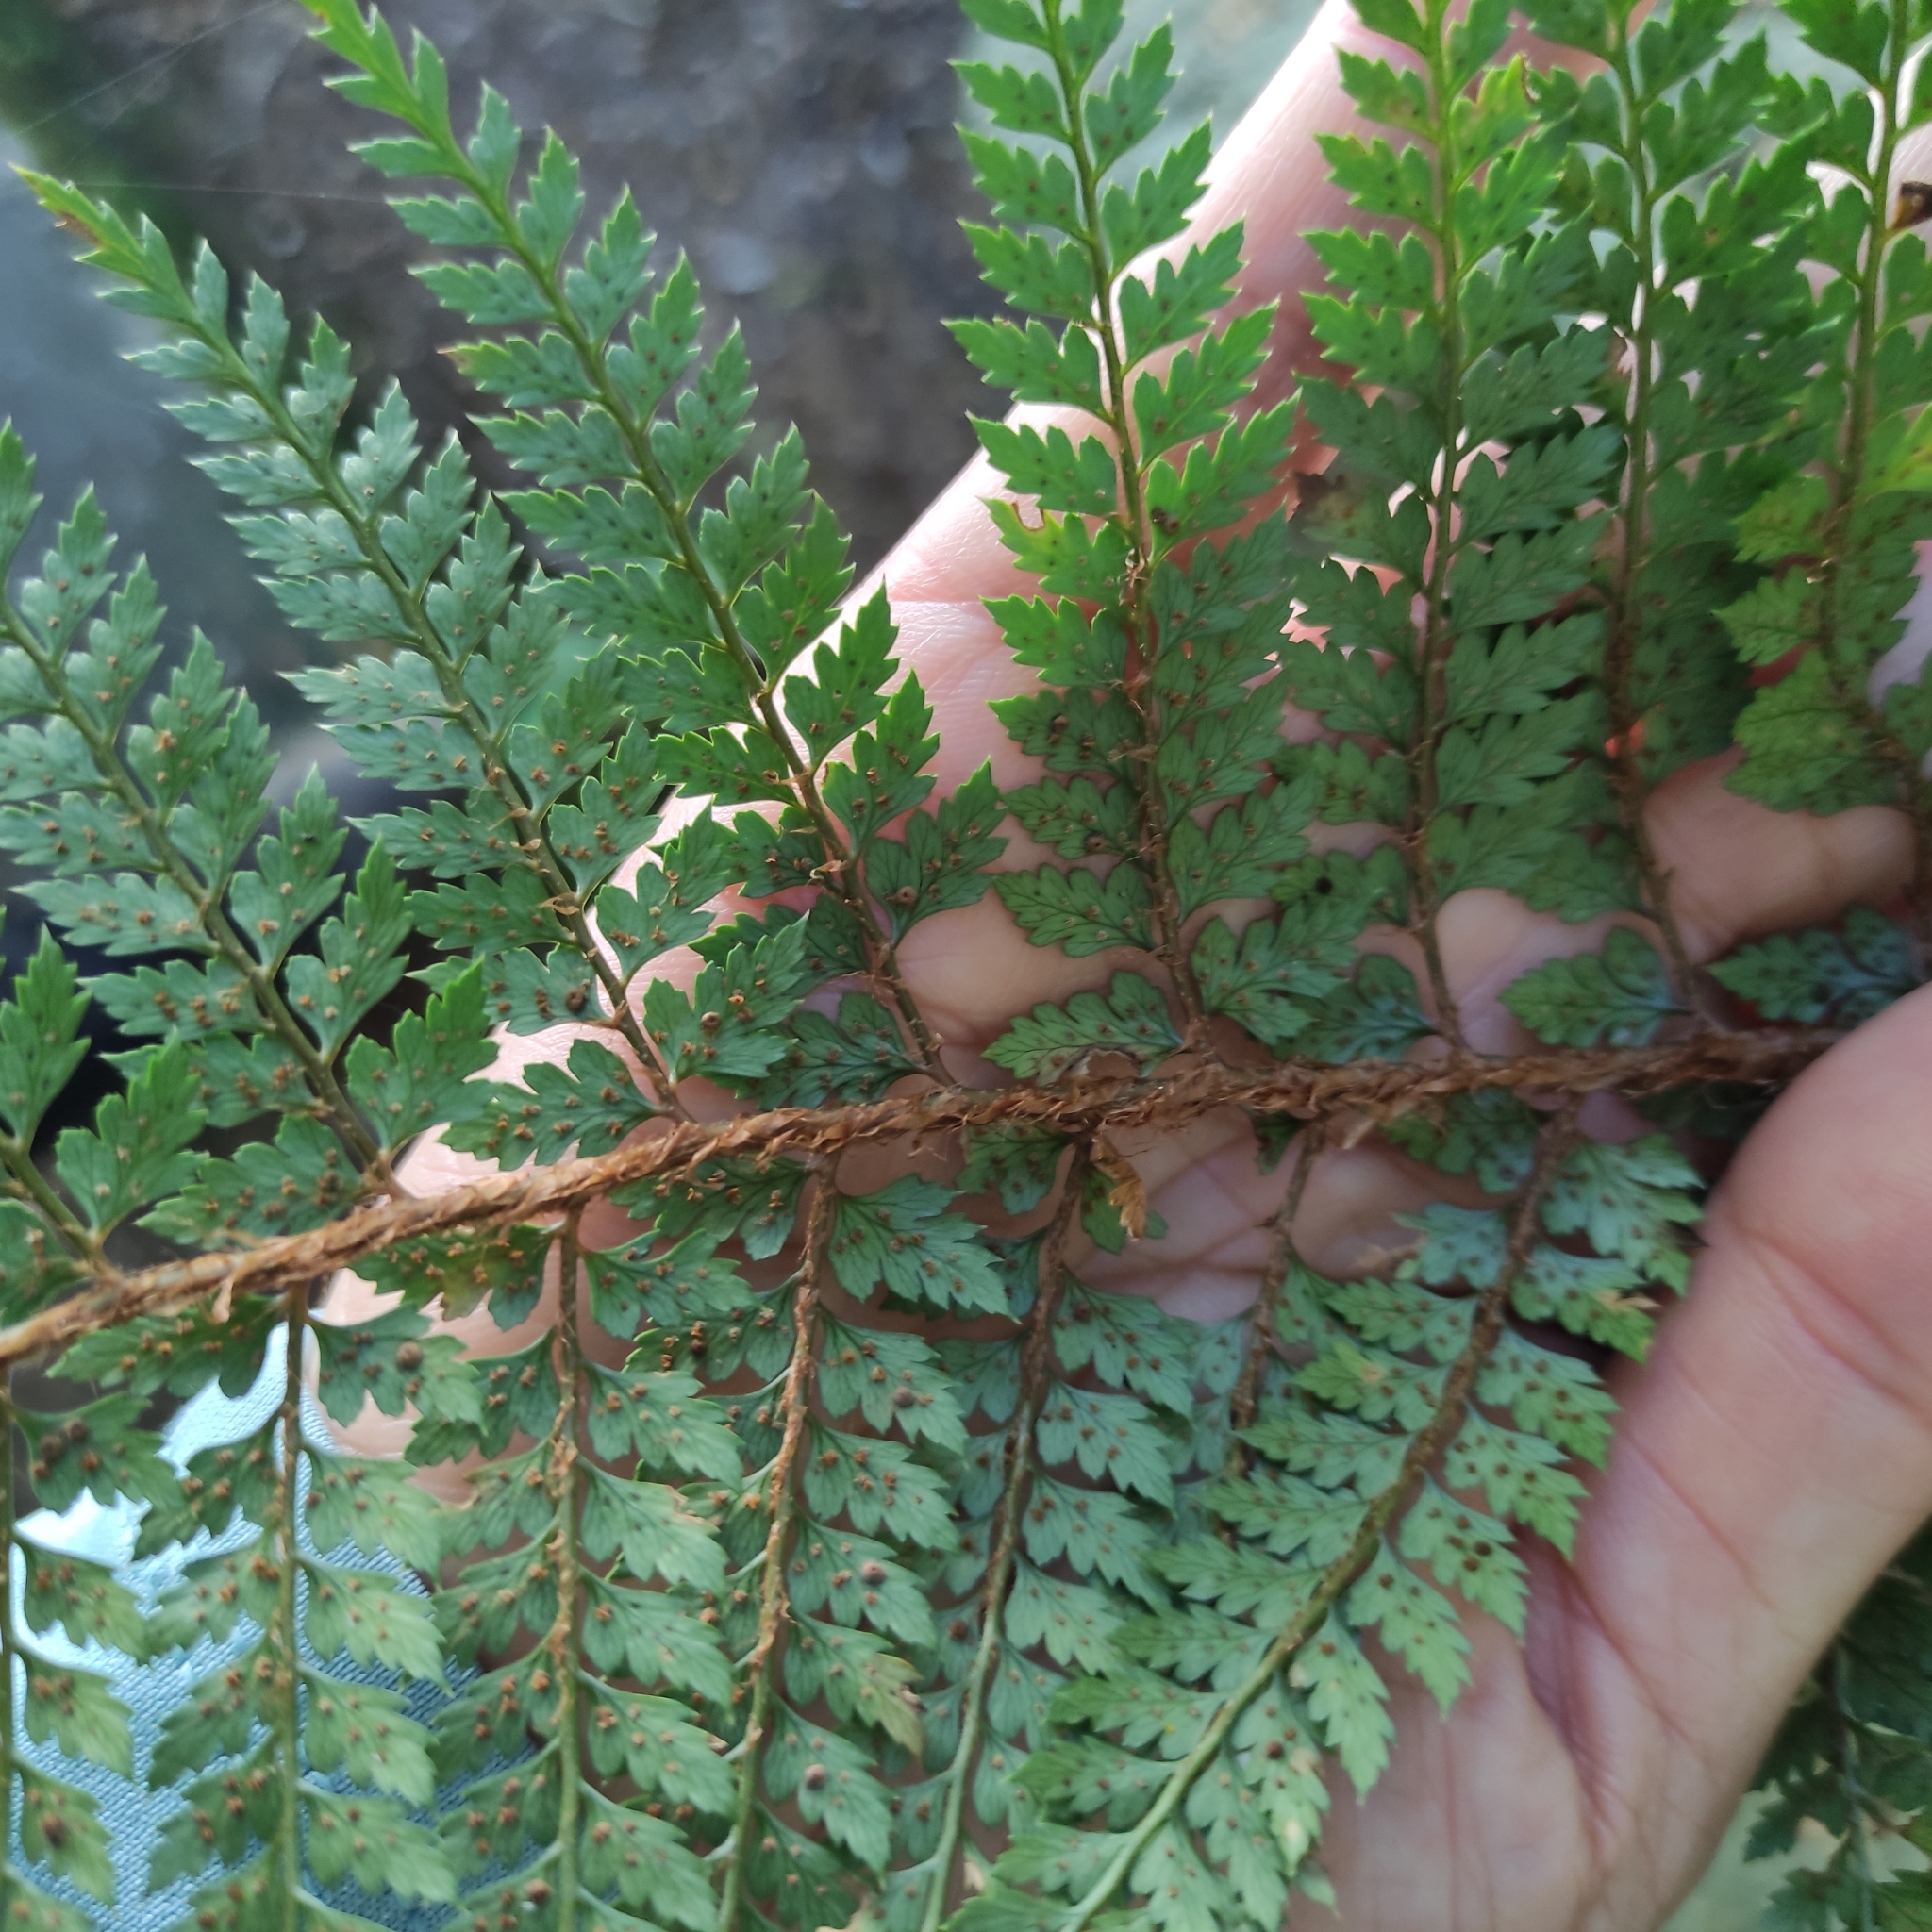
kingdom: Plantae
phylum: Tracheophyta
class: Polypodiopsida
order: Polypodiales
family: Dryopteridaceae
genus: Polystichum
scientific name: Polystichum vestitum
